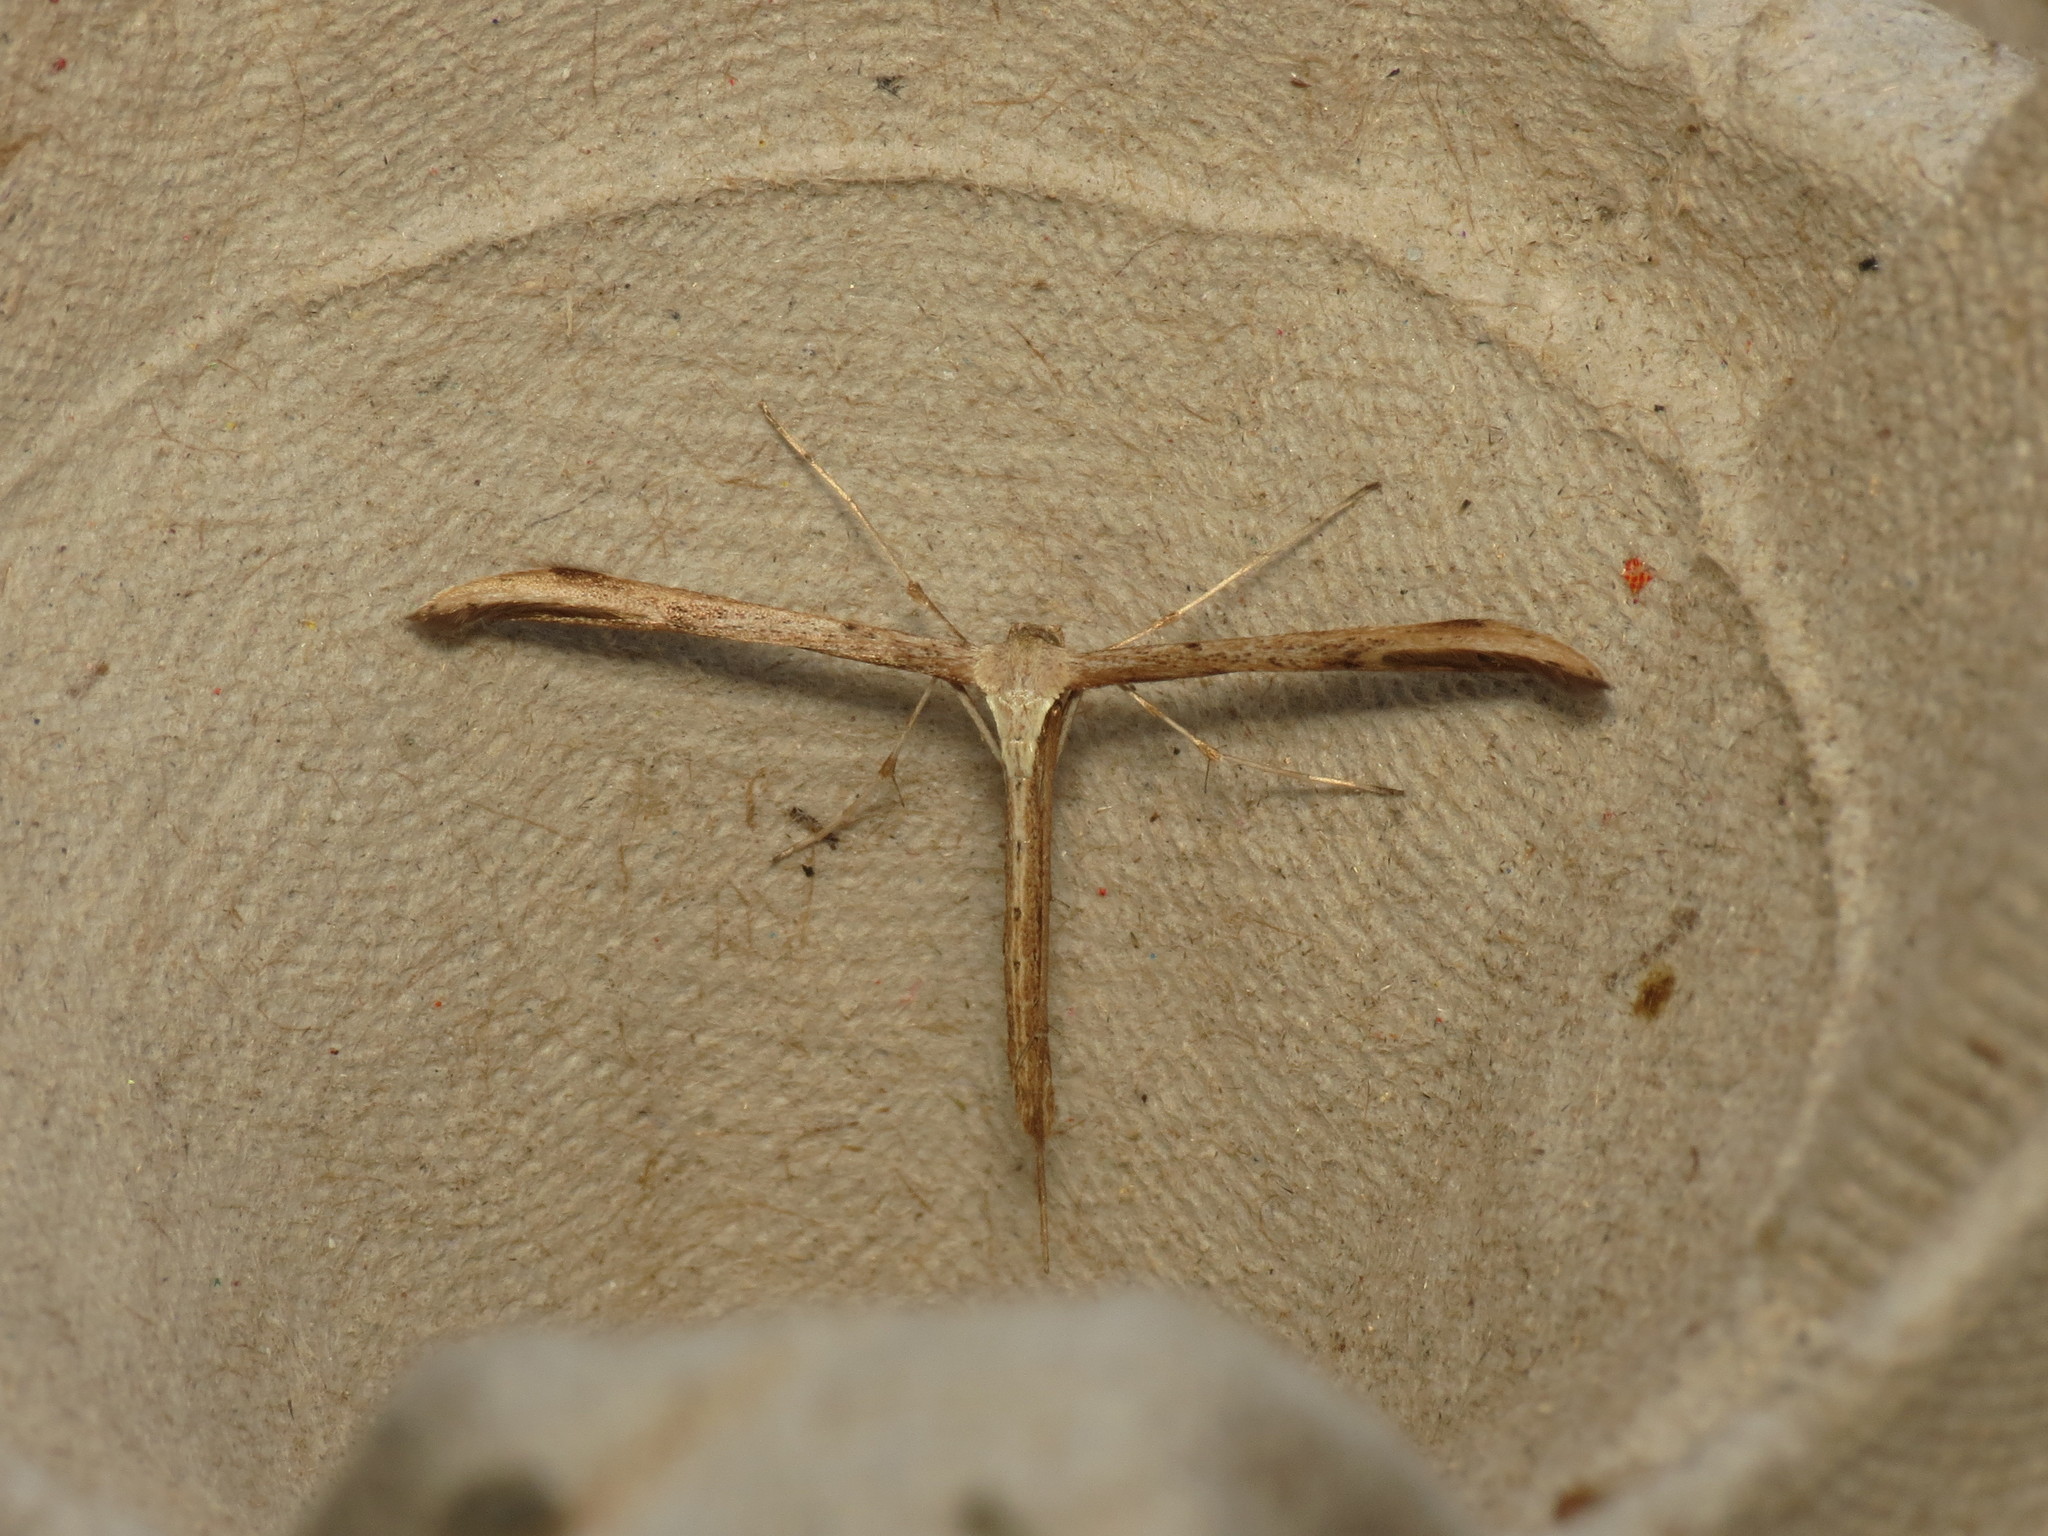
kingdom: Animalia
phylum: Arthropoda
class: Insecta
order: Lepidoptera
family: Pterophoridae
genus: Emmelina
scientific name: Emmelina monodactyla
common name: Common plume
